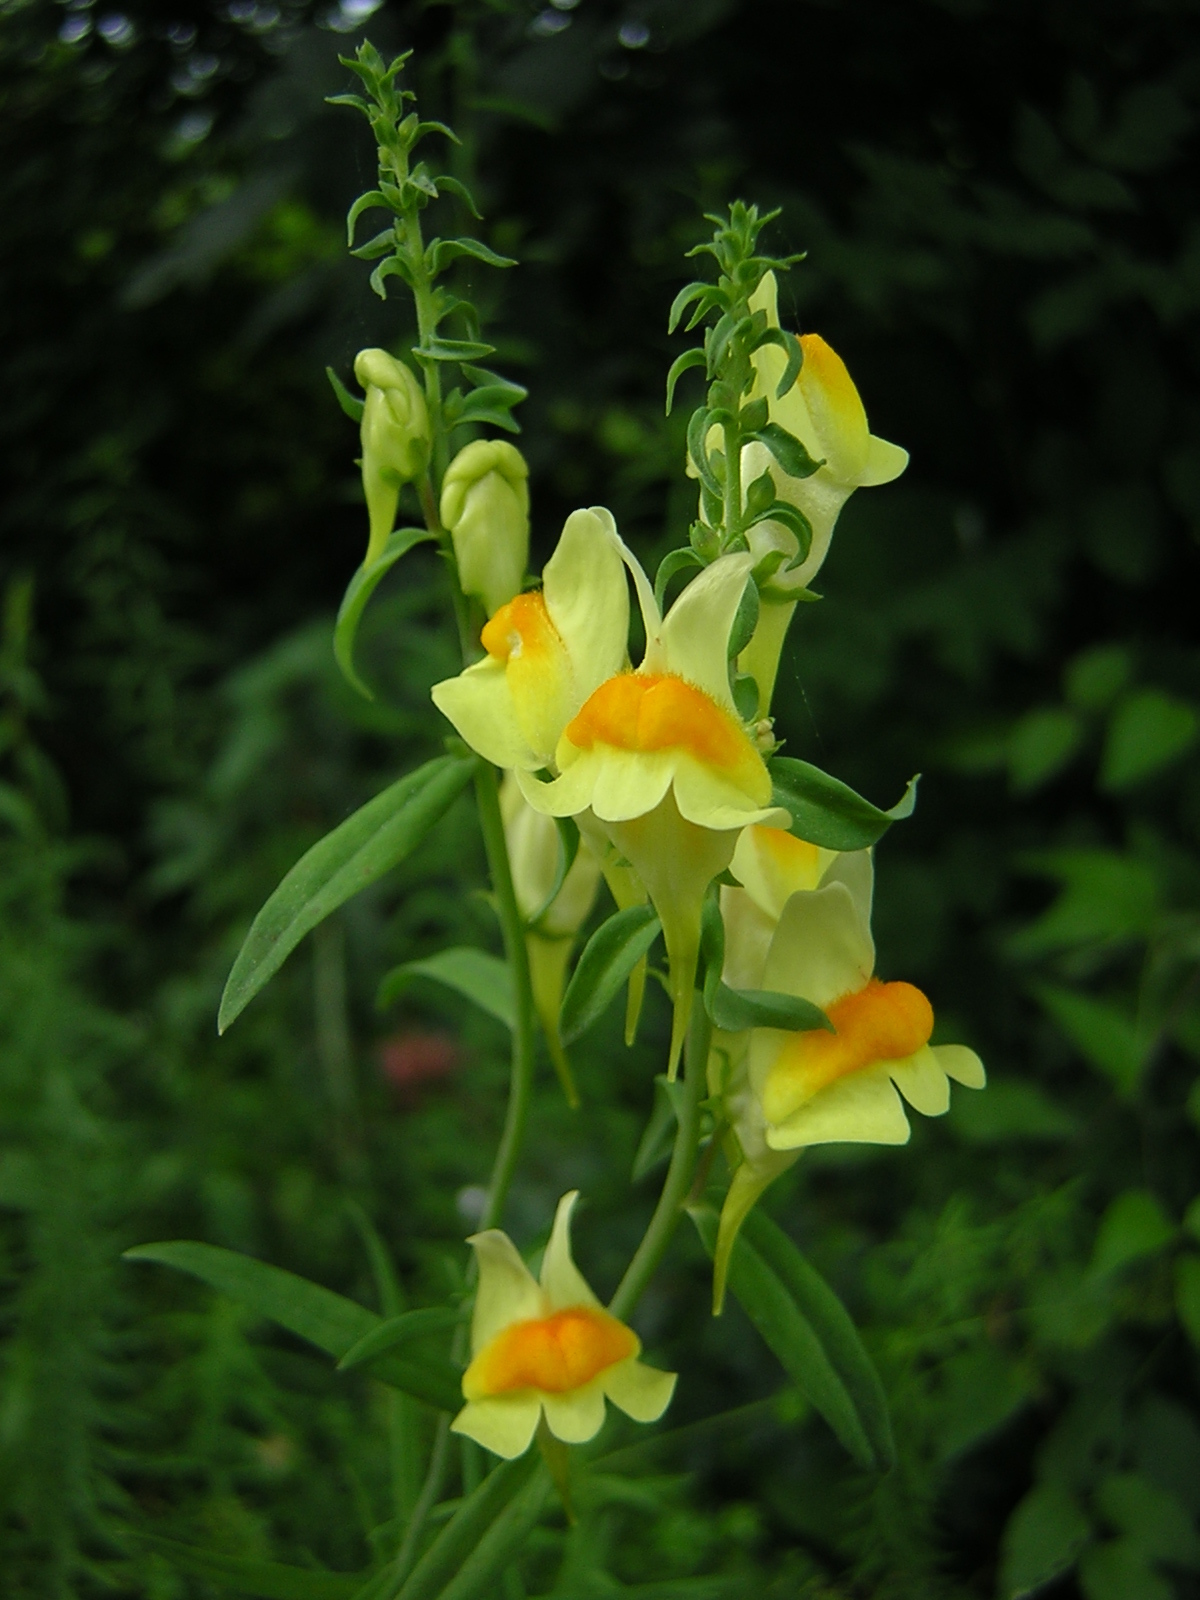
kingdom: Plantae
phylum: Tracheophyta
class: Magnoliopsida
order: Lamiales
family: Plantaginaceae
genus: Linaria
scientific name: Linaria vulgaris
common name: Butter and eggs
